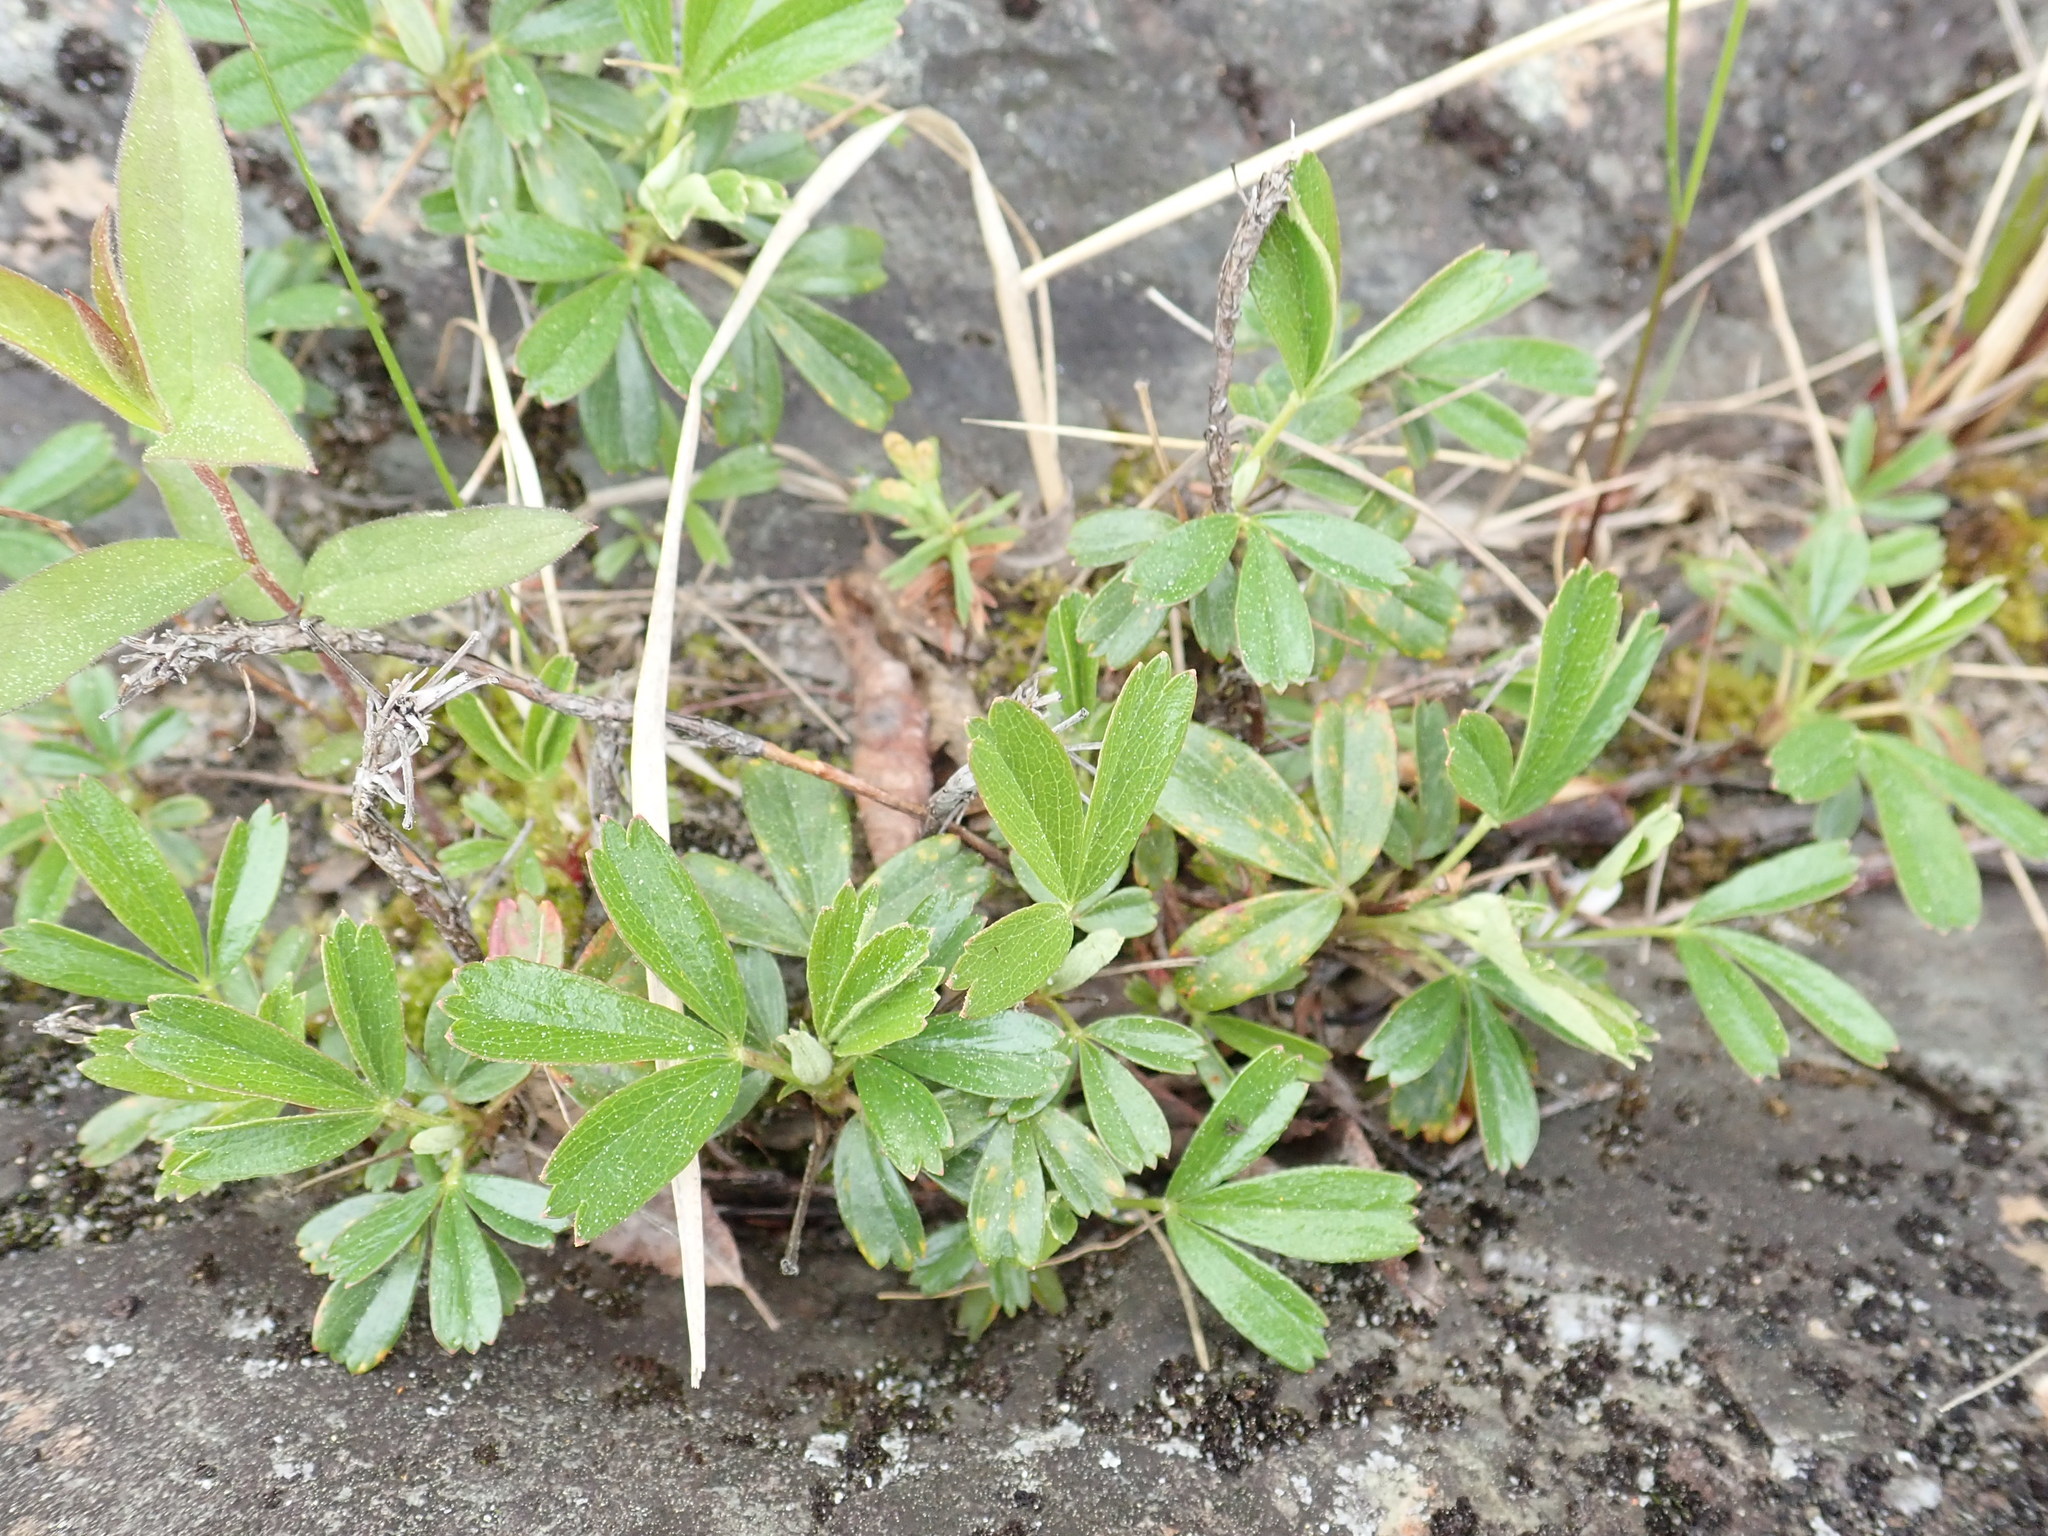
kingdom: Plantae
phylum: Tracheophyta
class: Magnoliopsida
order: Rosales
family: Rosaceae
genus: Sibbaldia
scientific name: Sibbaldia tridentata
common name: Three-toothed cinquefoil
